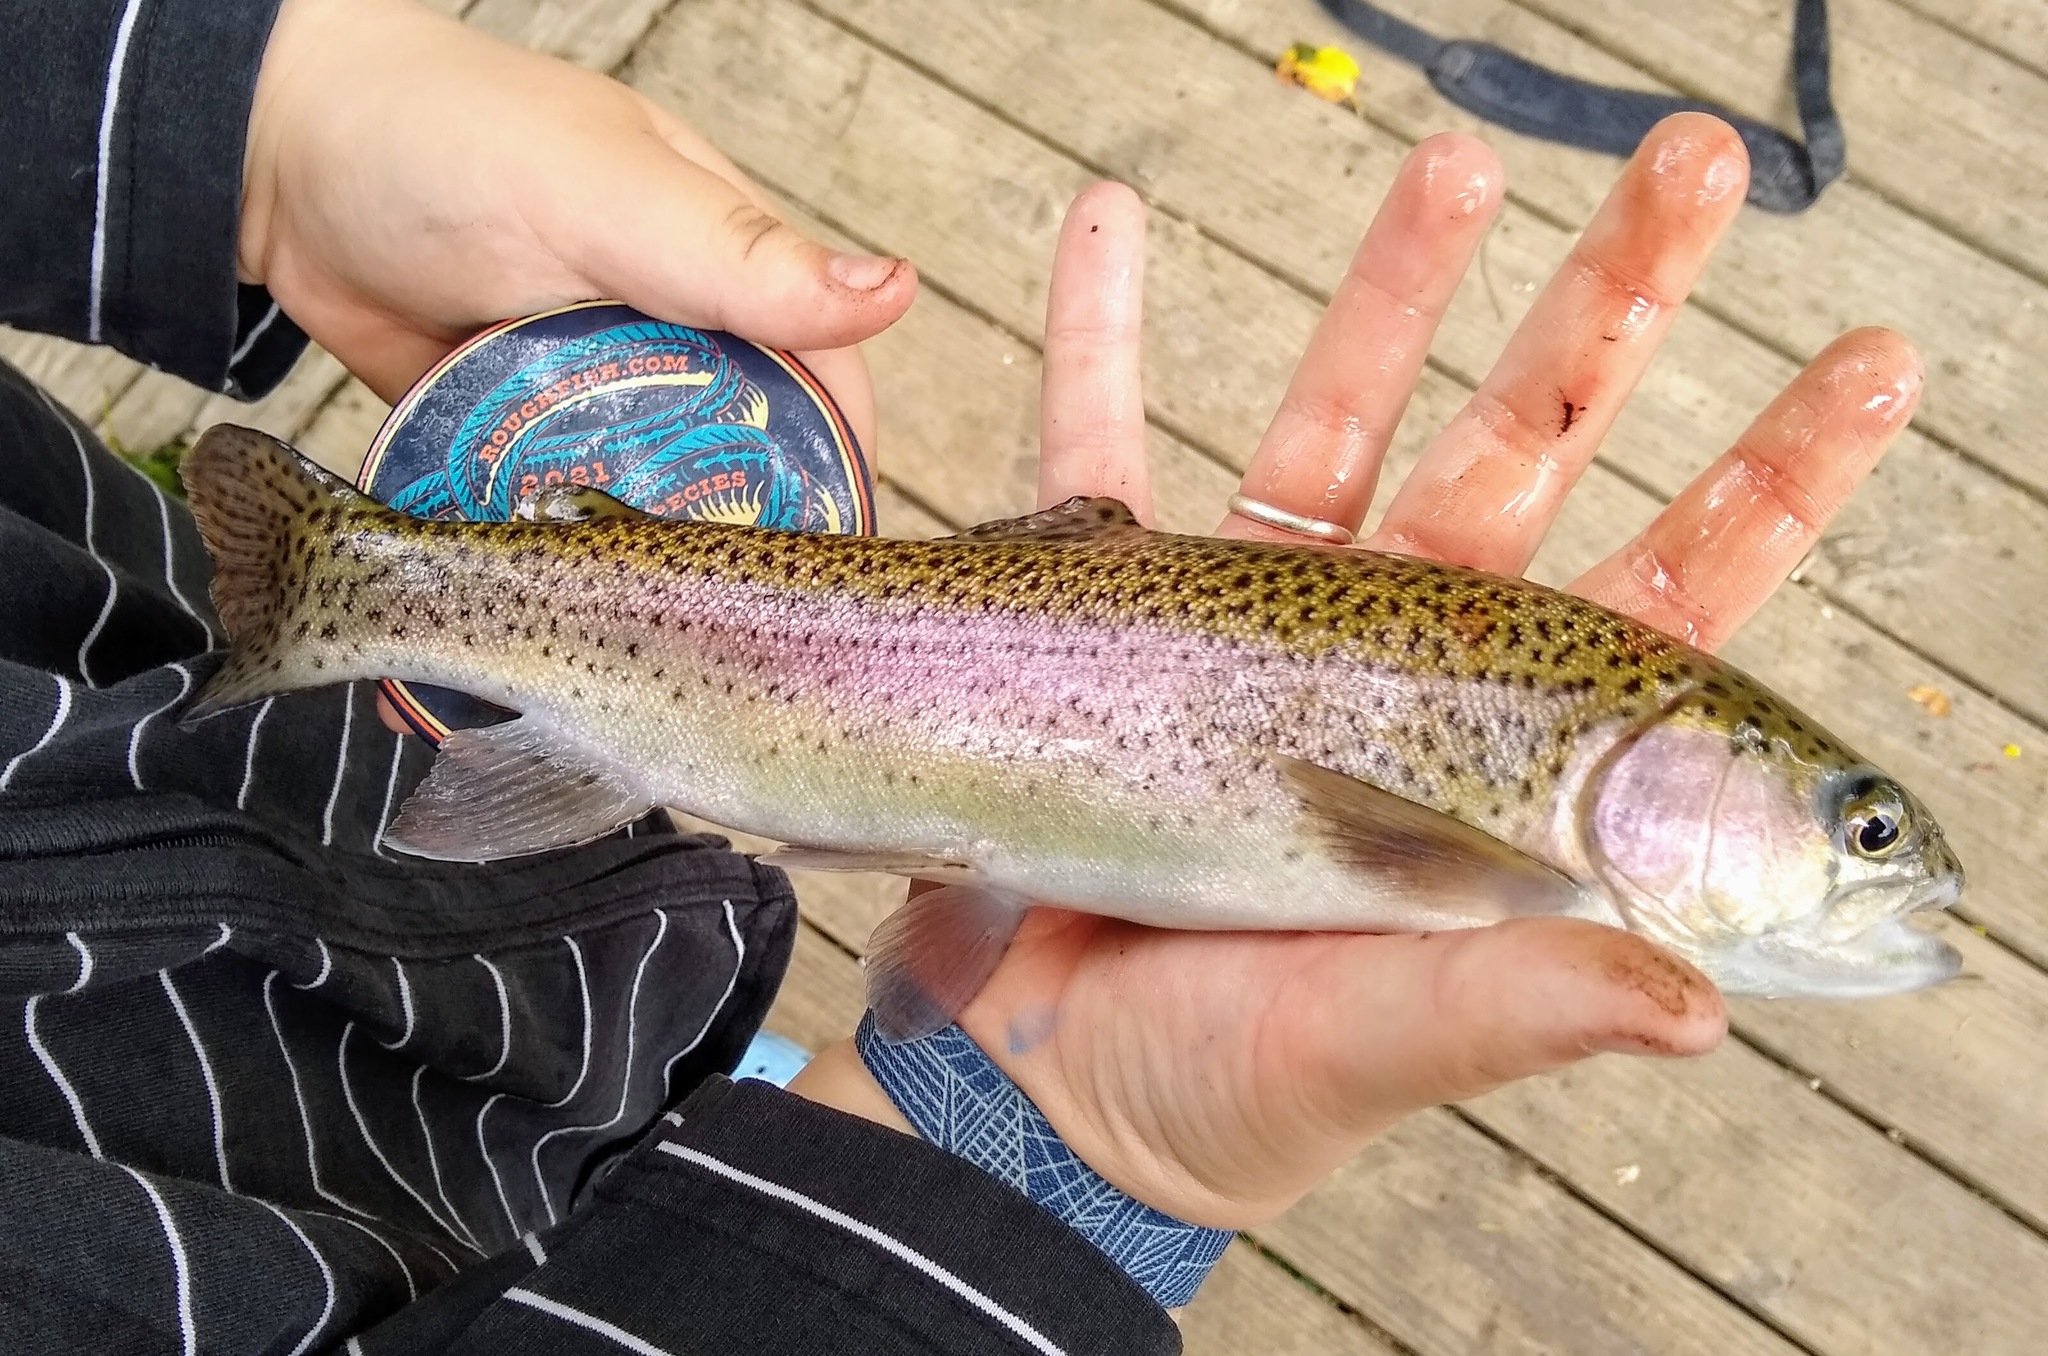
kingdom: Animalia
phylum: Chordata
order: Salmoniformes
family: Salmonidae
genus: Oncorhynchus
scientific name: Oncorhynchus mykiss
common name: Rainbow trout
